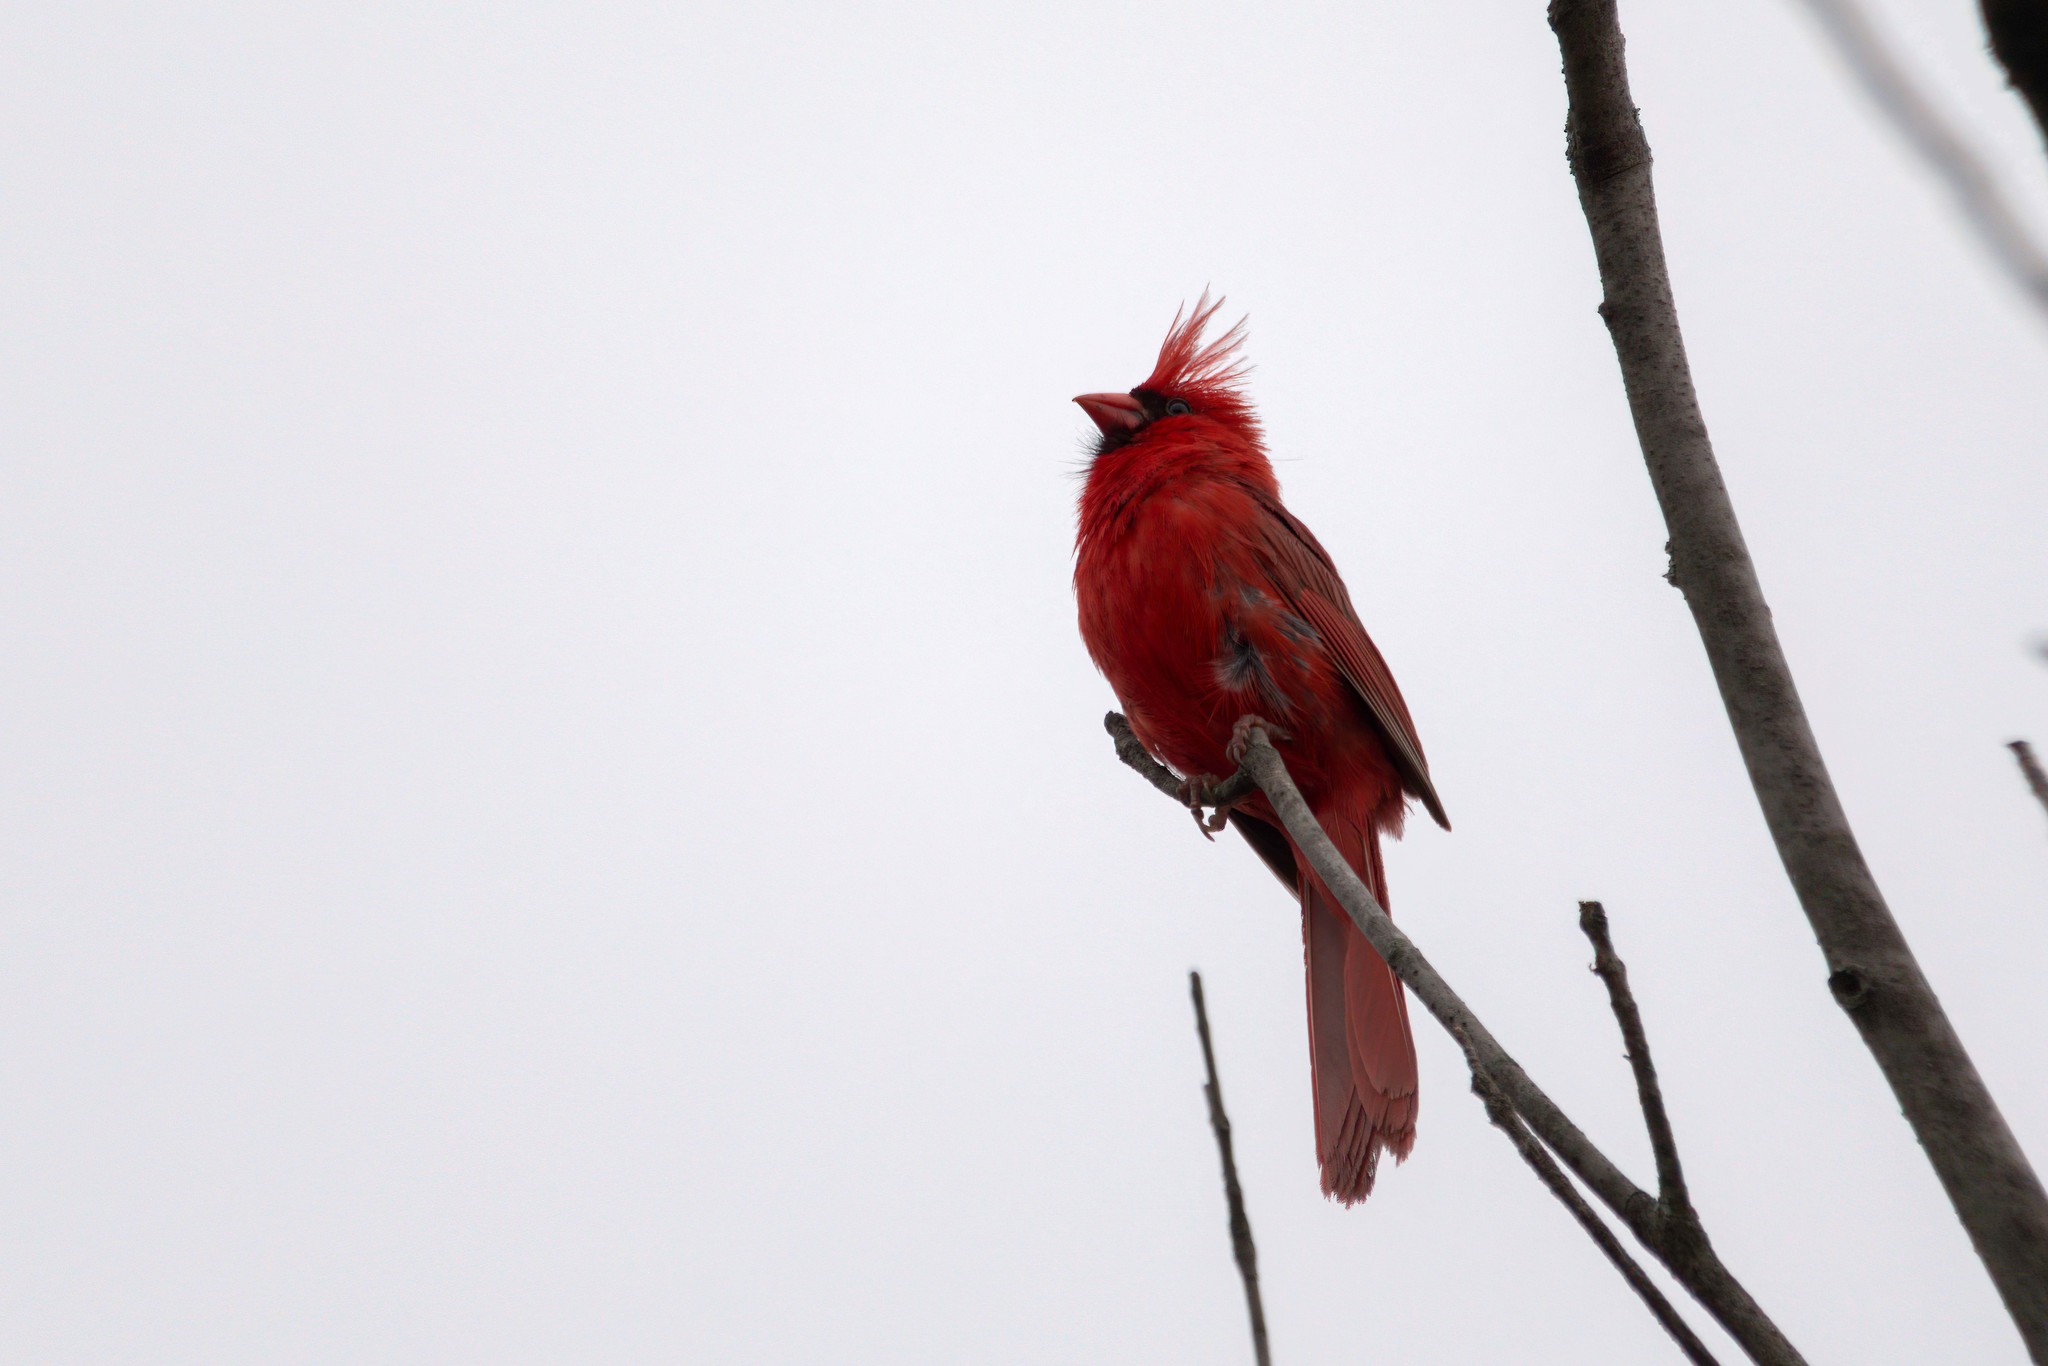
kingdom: Animalia
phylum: Chordata
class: Aves
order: Passeriformes
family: Cardinalidae
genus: Cardinalis
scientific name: Cardinalis cardinalis
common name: Northern cardinal
